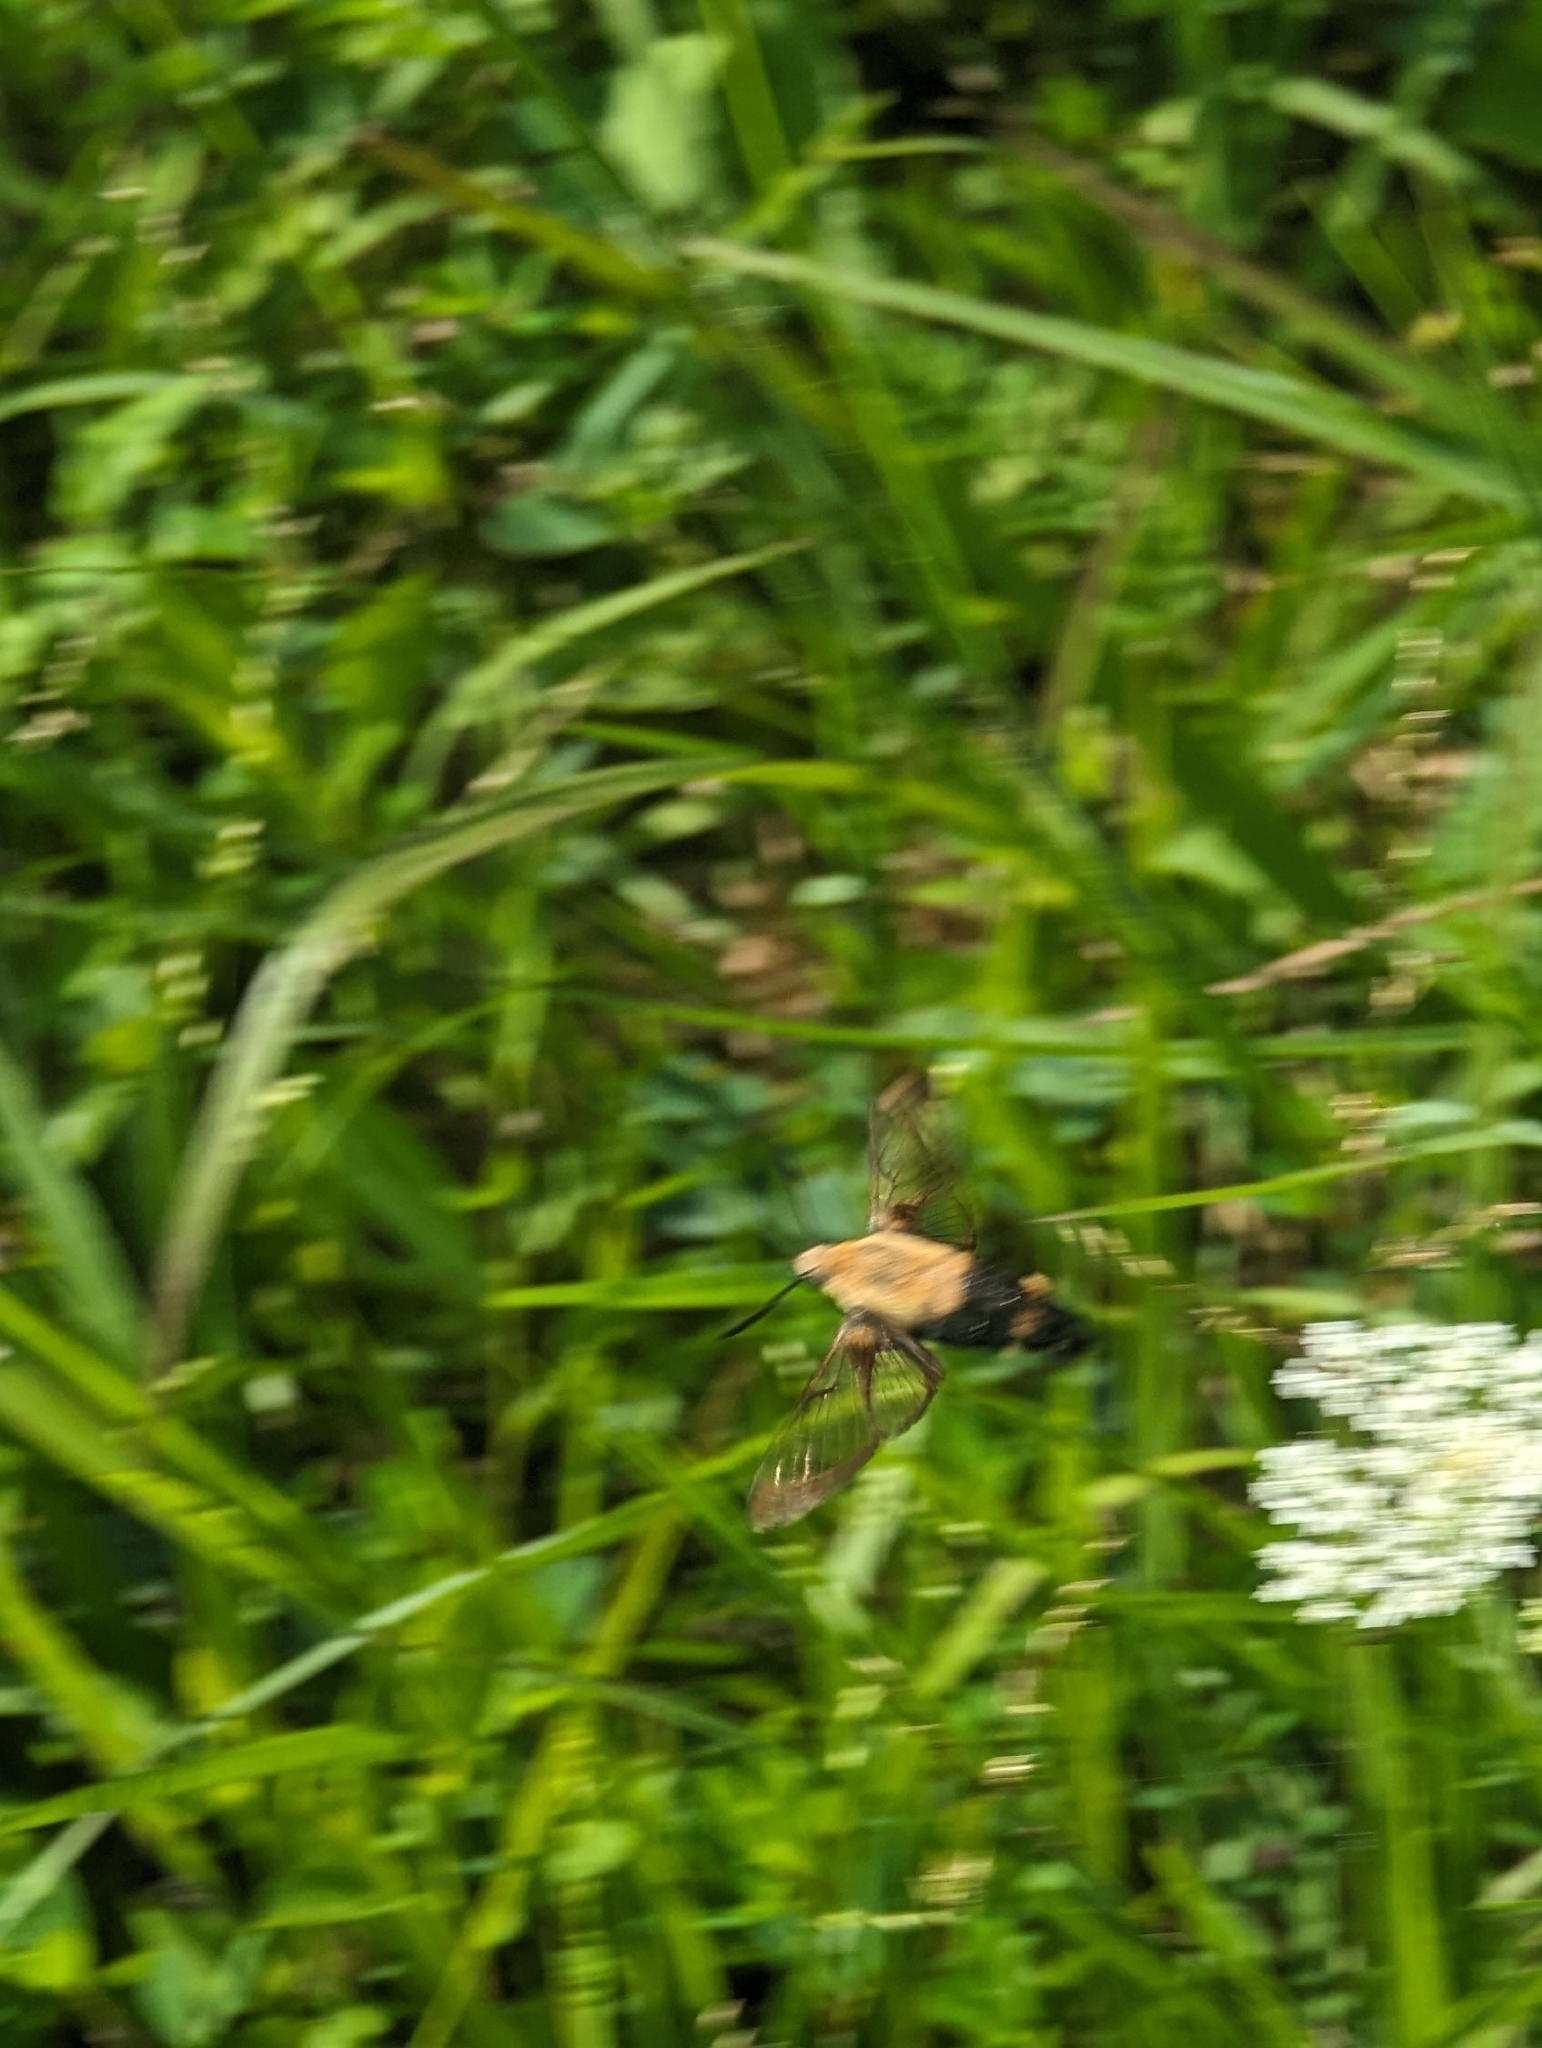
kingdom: Animalia
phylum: Arthropoda
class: Insecta
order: Lepidoptera
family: Sphingidae
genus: Hemaris
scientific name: Hemaris diffinis
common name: Bumblebee moth
